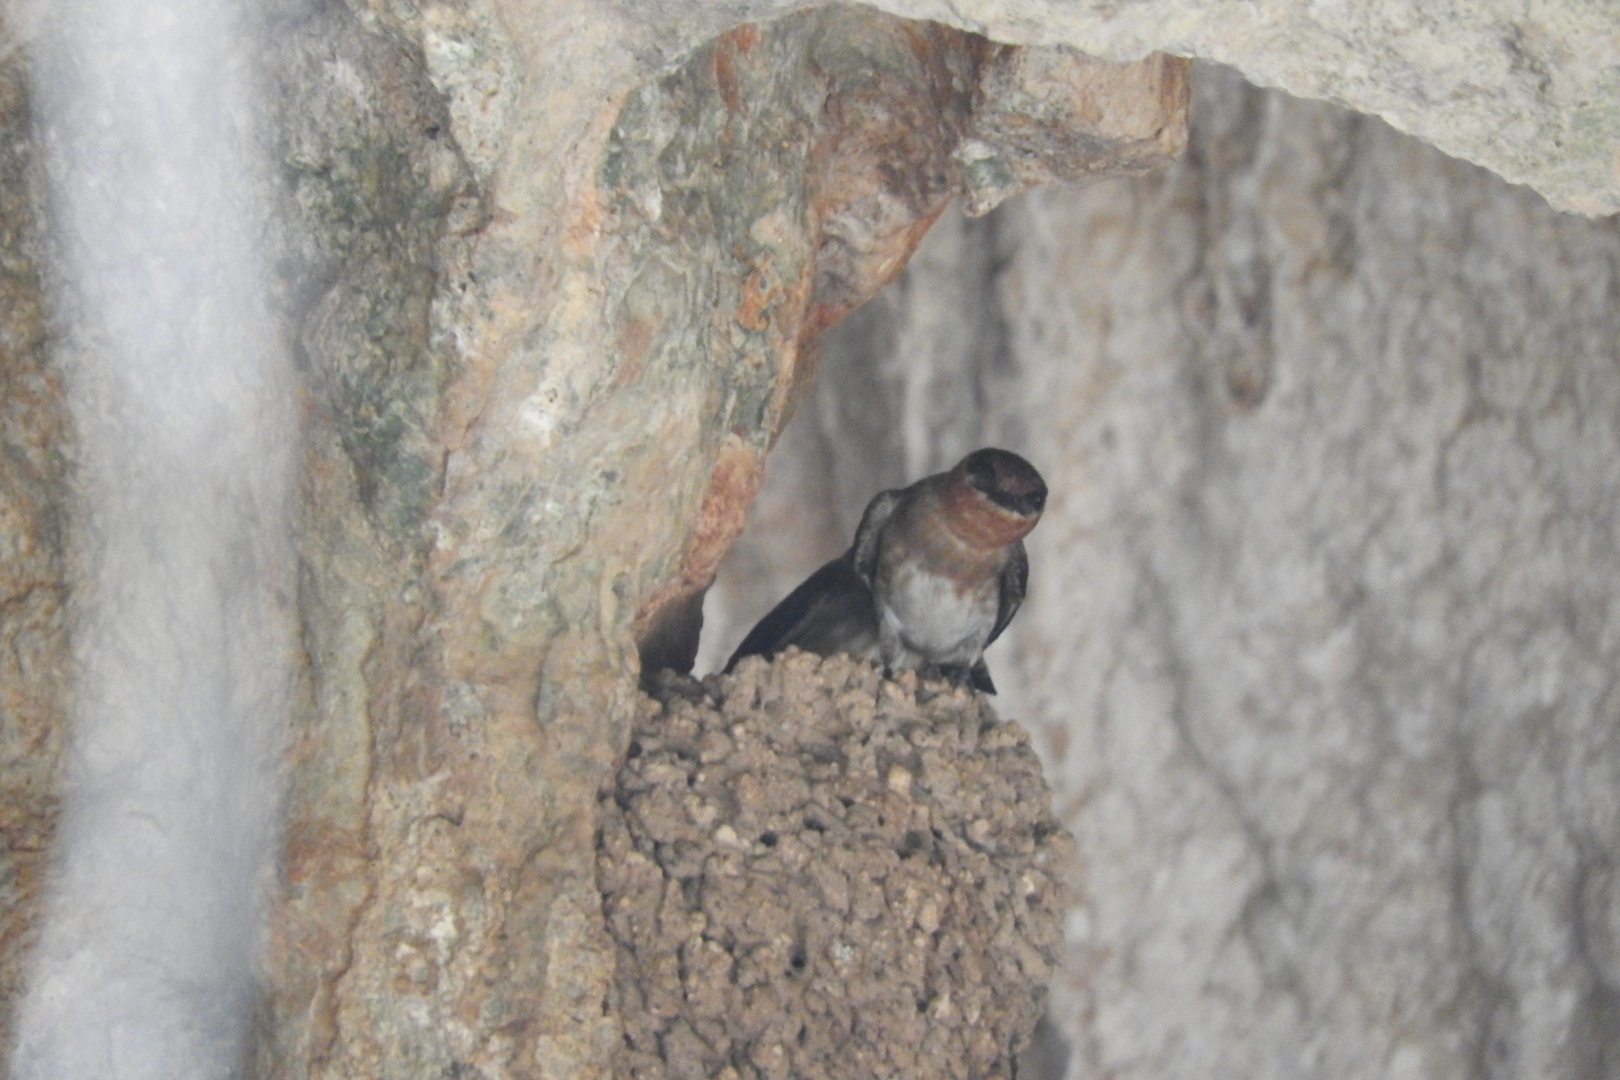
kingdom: Animalia
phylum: Chordata
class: Aves
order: Passeriformes
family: Hirundinidae
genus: Petrochelidon
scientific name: Petrochelidon fulva
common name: Cave swallow
